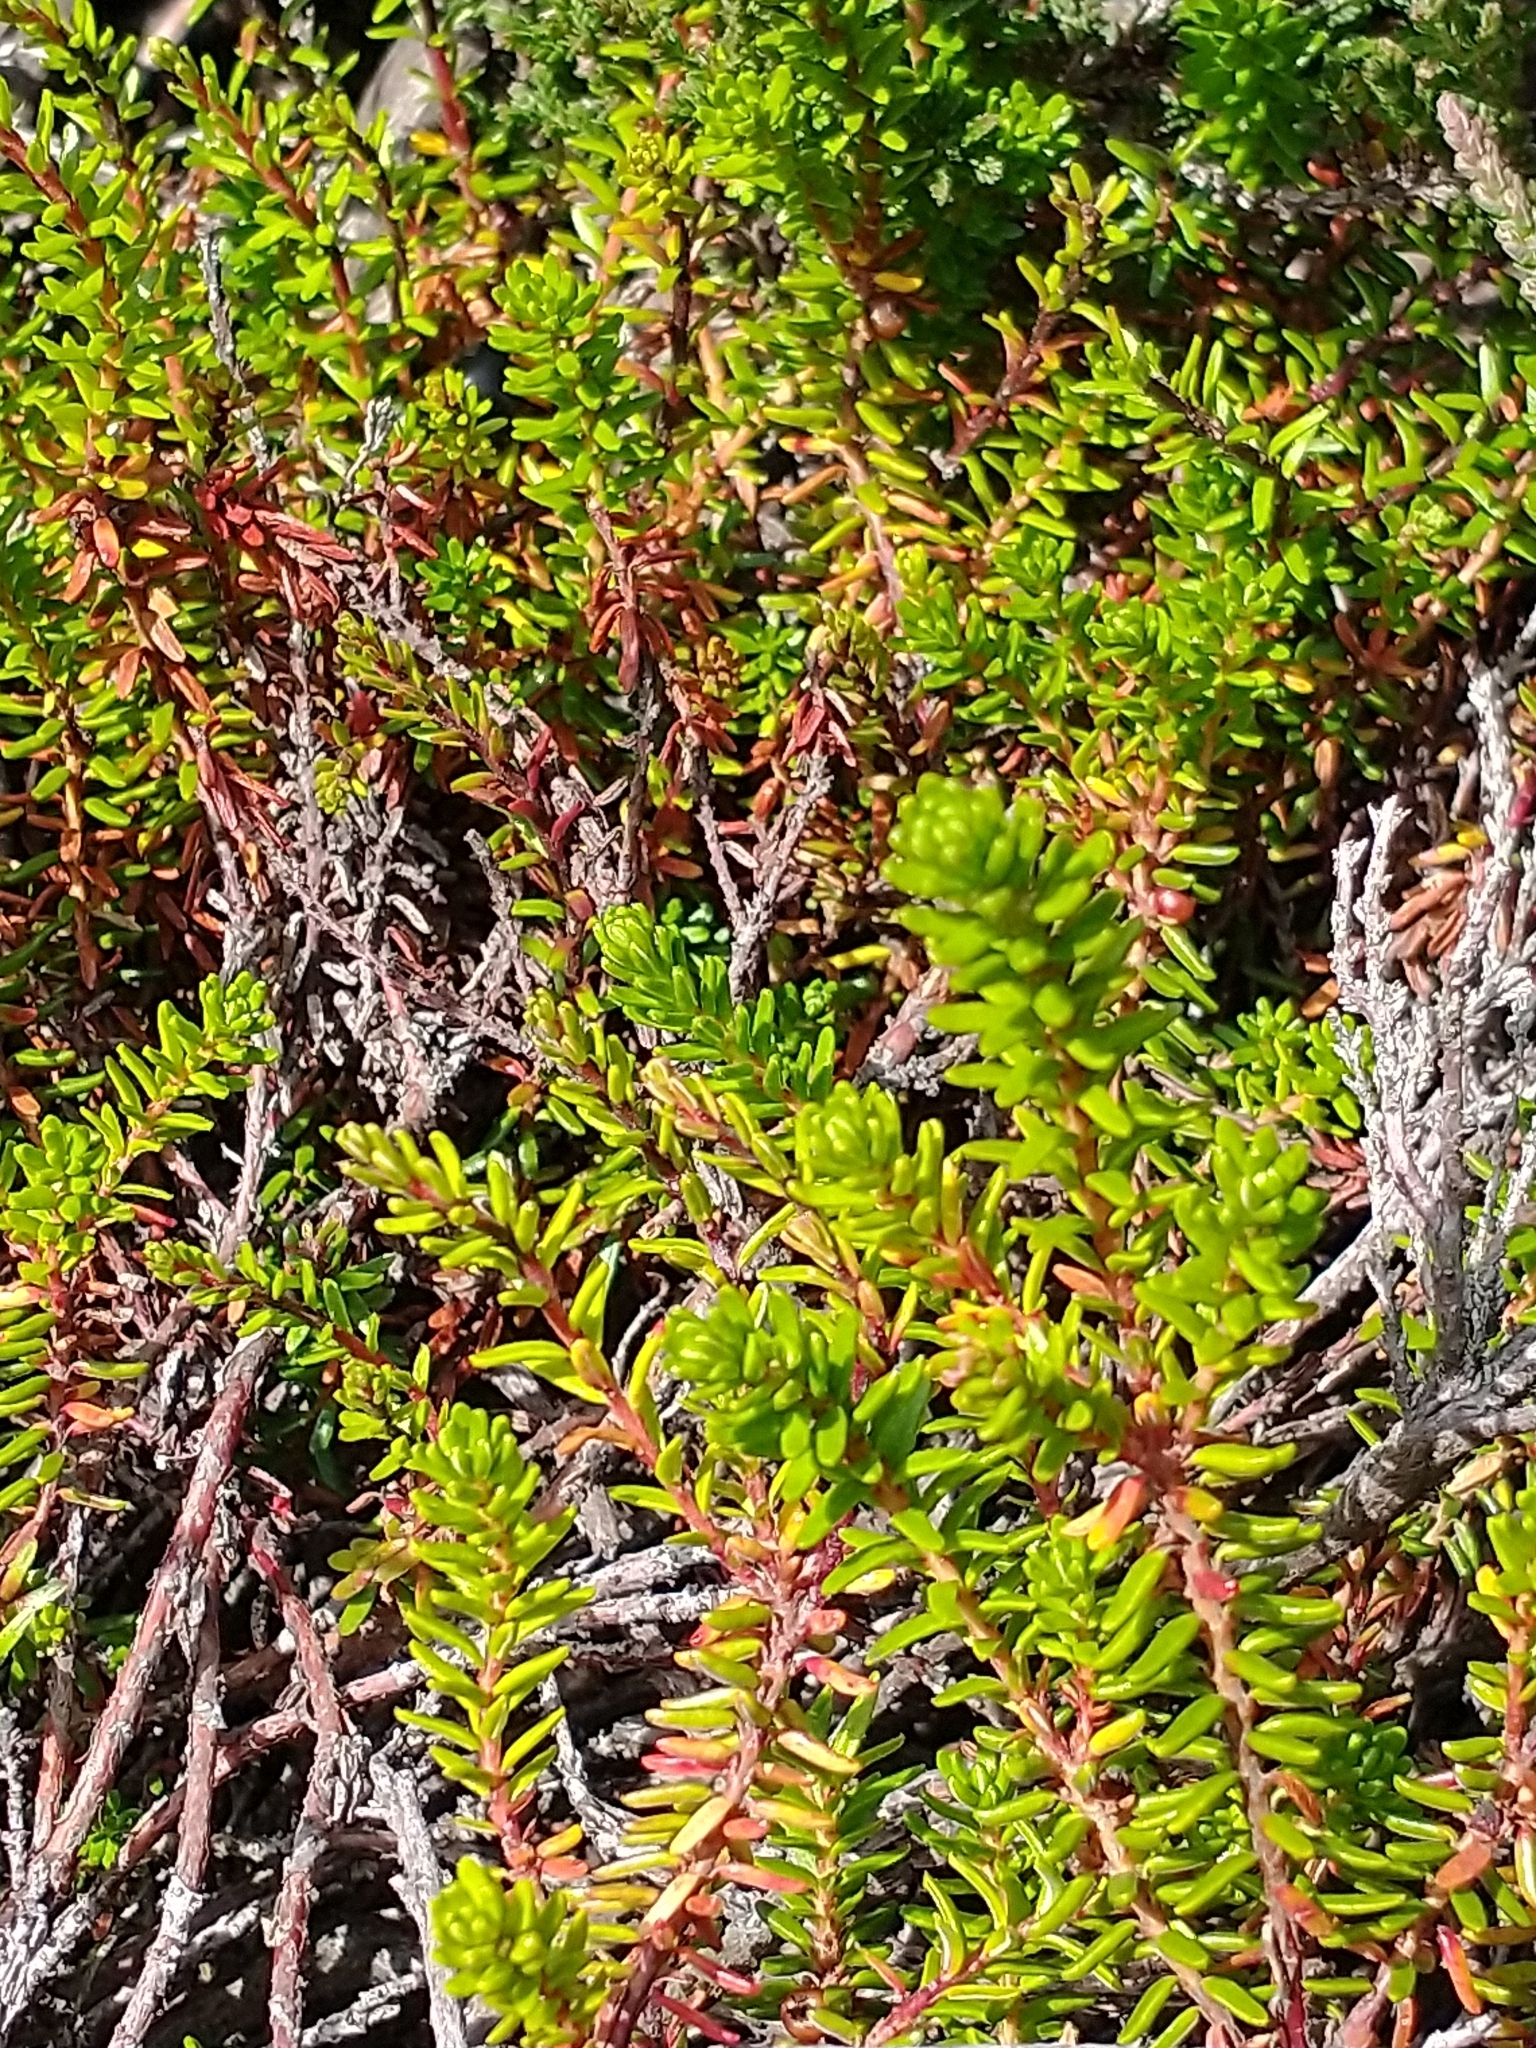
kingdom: Plantae
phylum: Tracheophyta
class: Magnoliopsida
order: Ericales
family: Ericaceae
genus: Empetrum
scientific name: Empetrum nigrum
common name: Black crowberry
